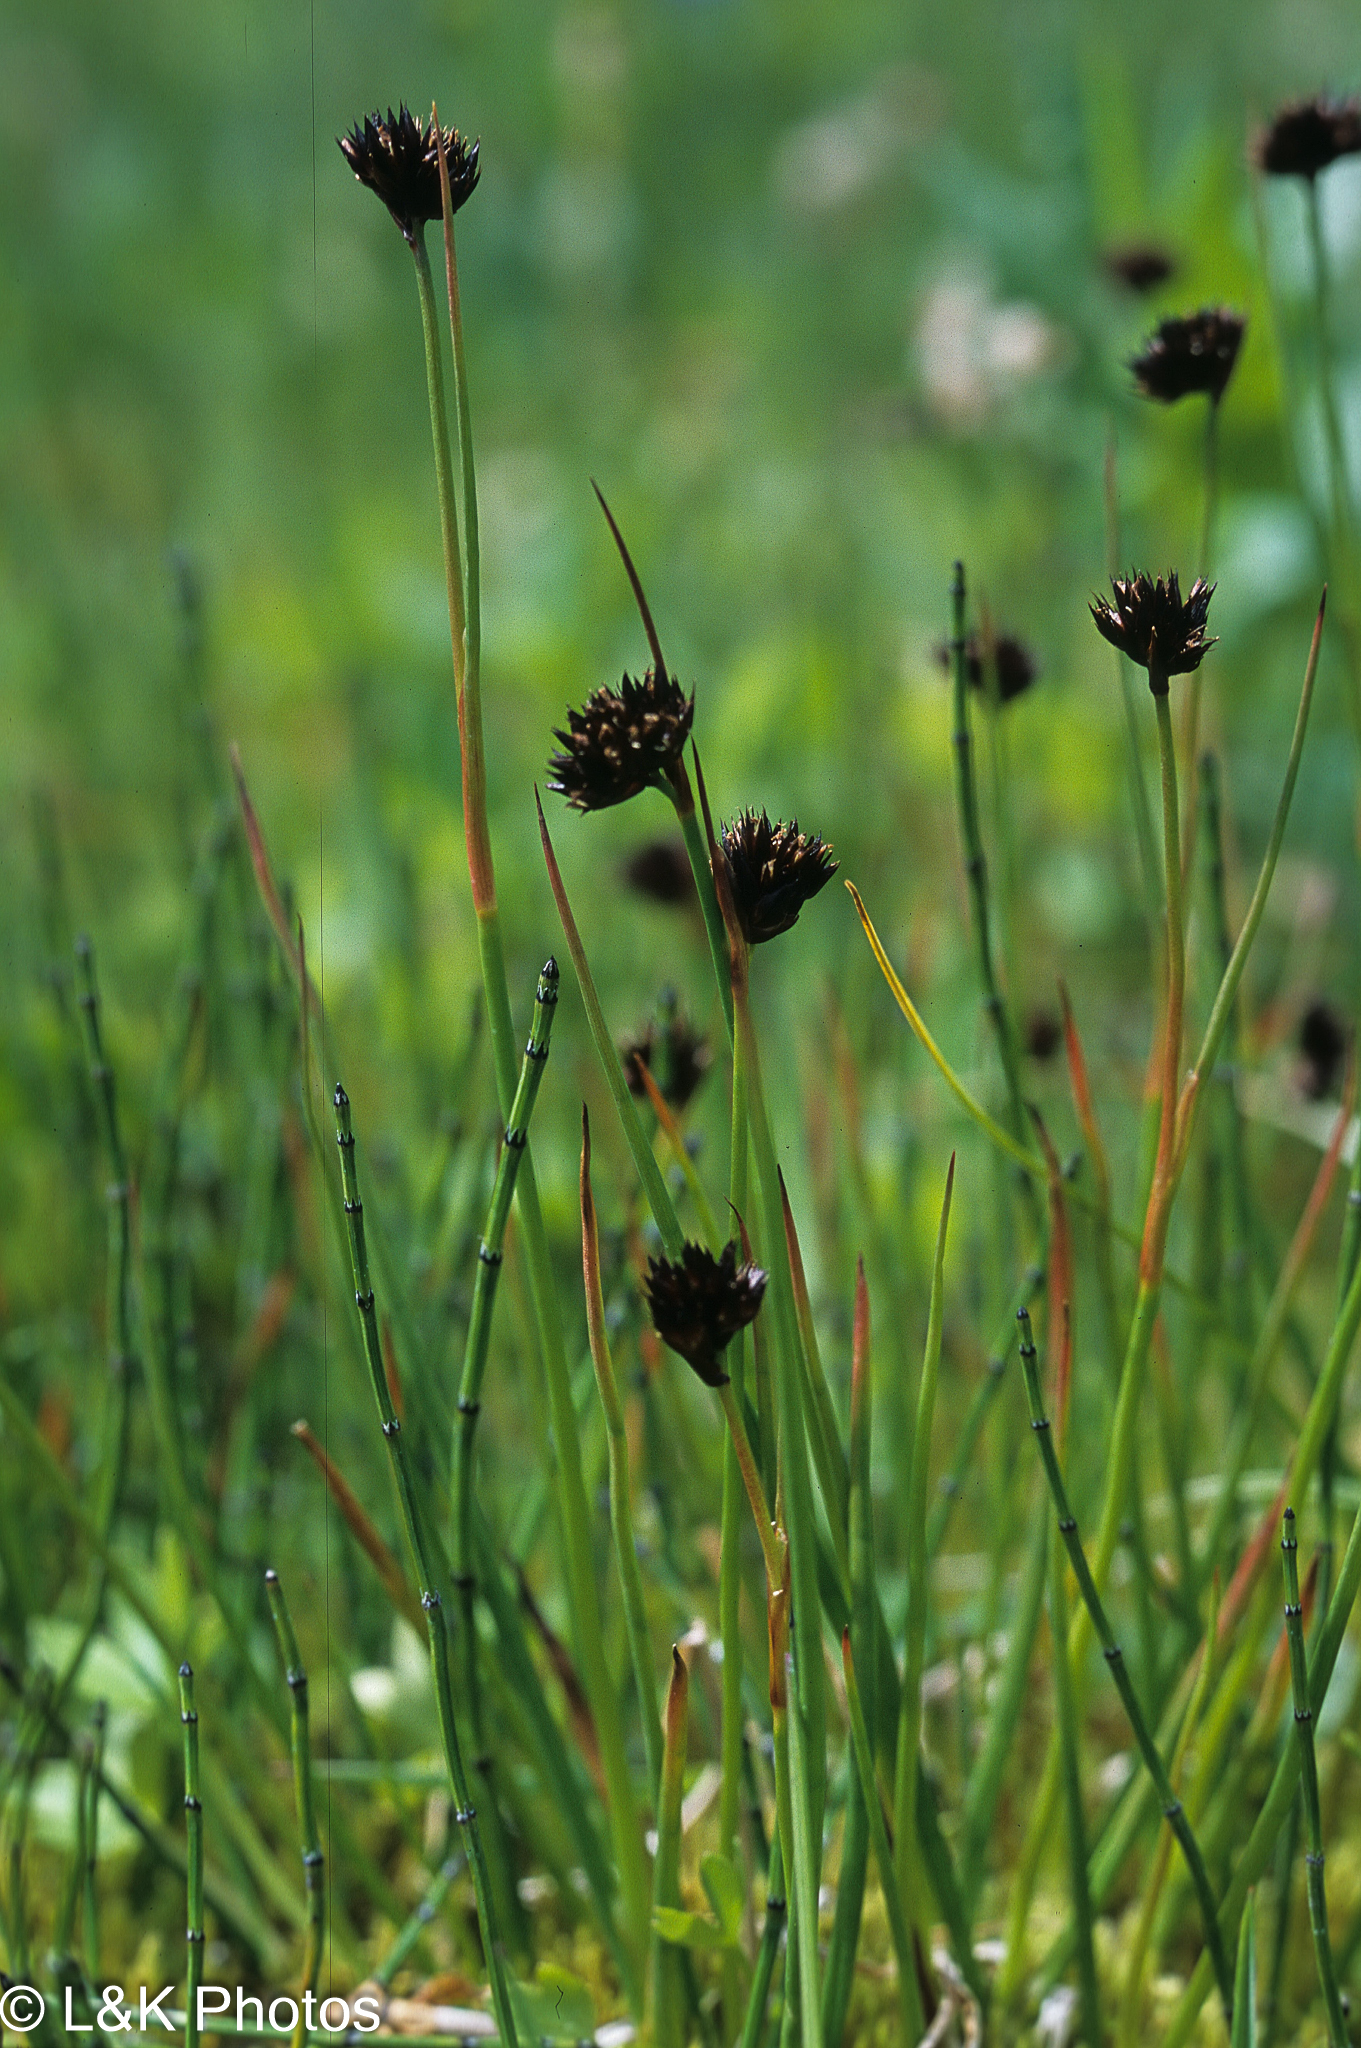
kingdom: Plantae
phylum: Tracheophyta
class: Polypodiopsida
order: Equisetales
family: Equisetaceae
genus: Equisetum
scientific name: Equisetum variegatum
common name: Variegated horsetail
